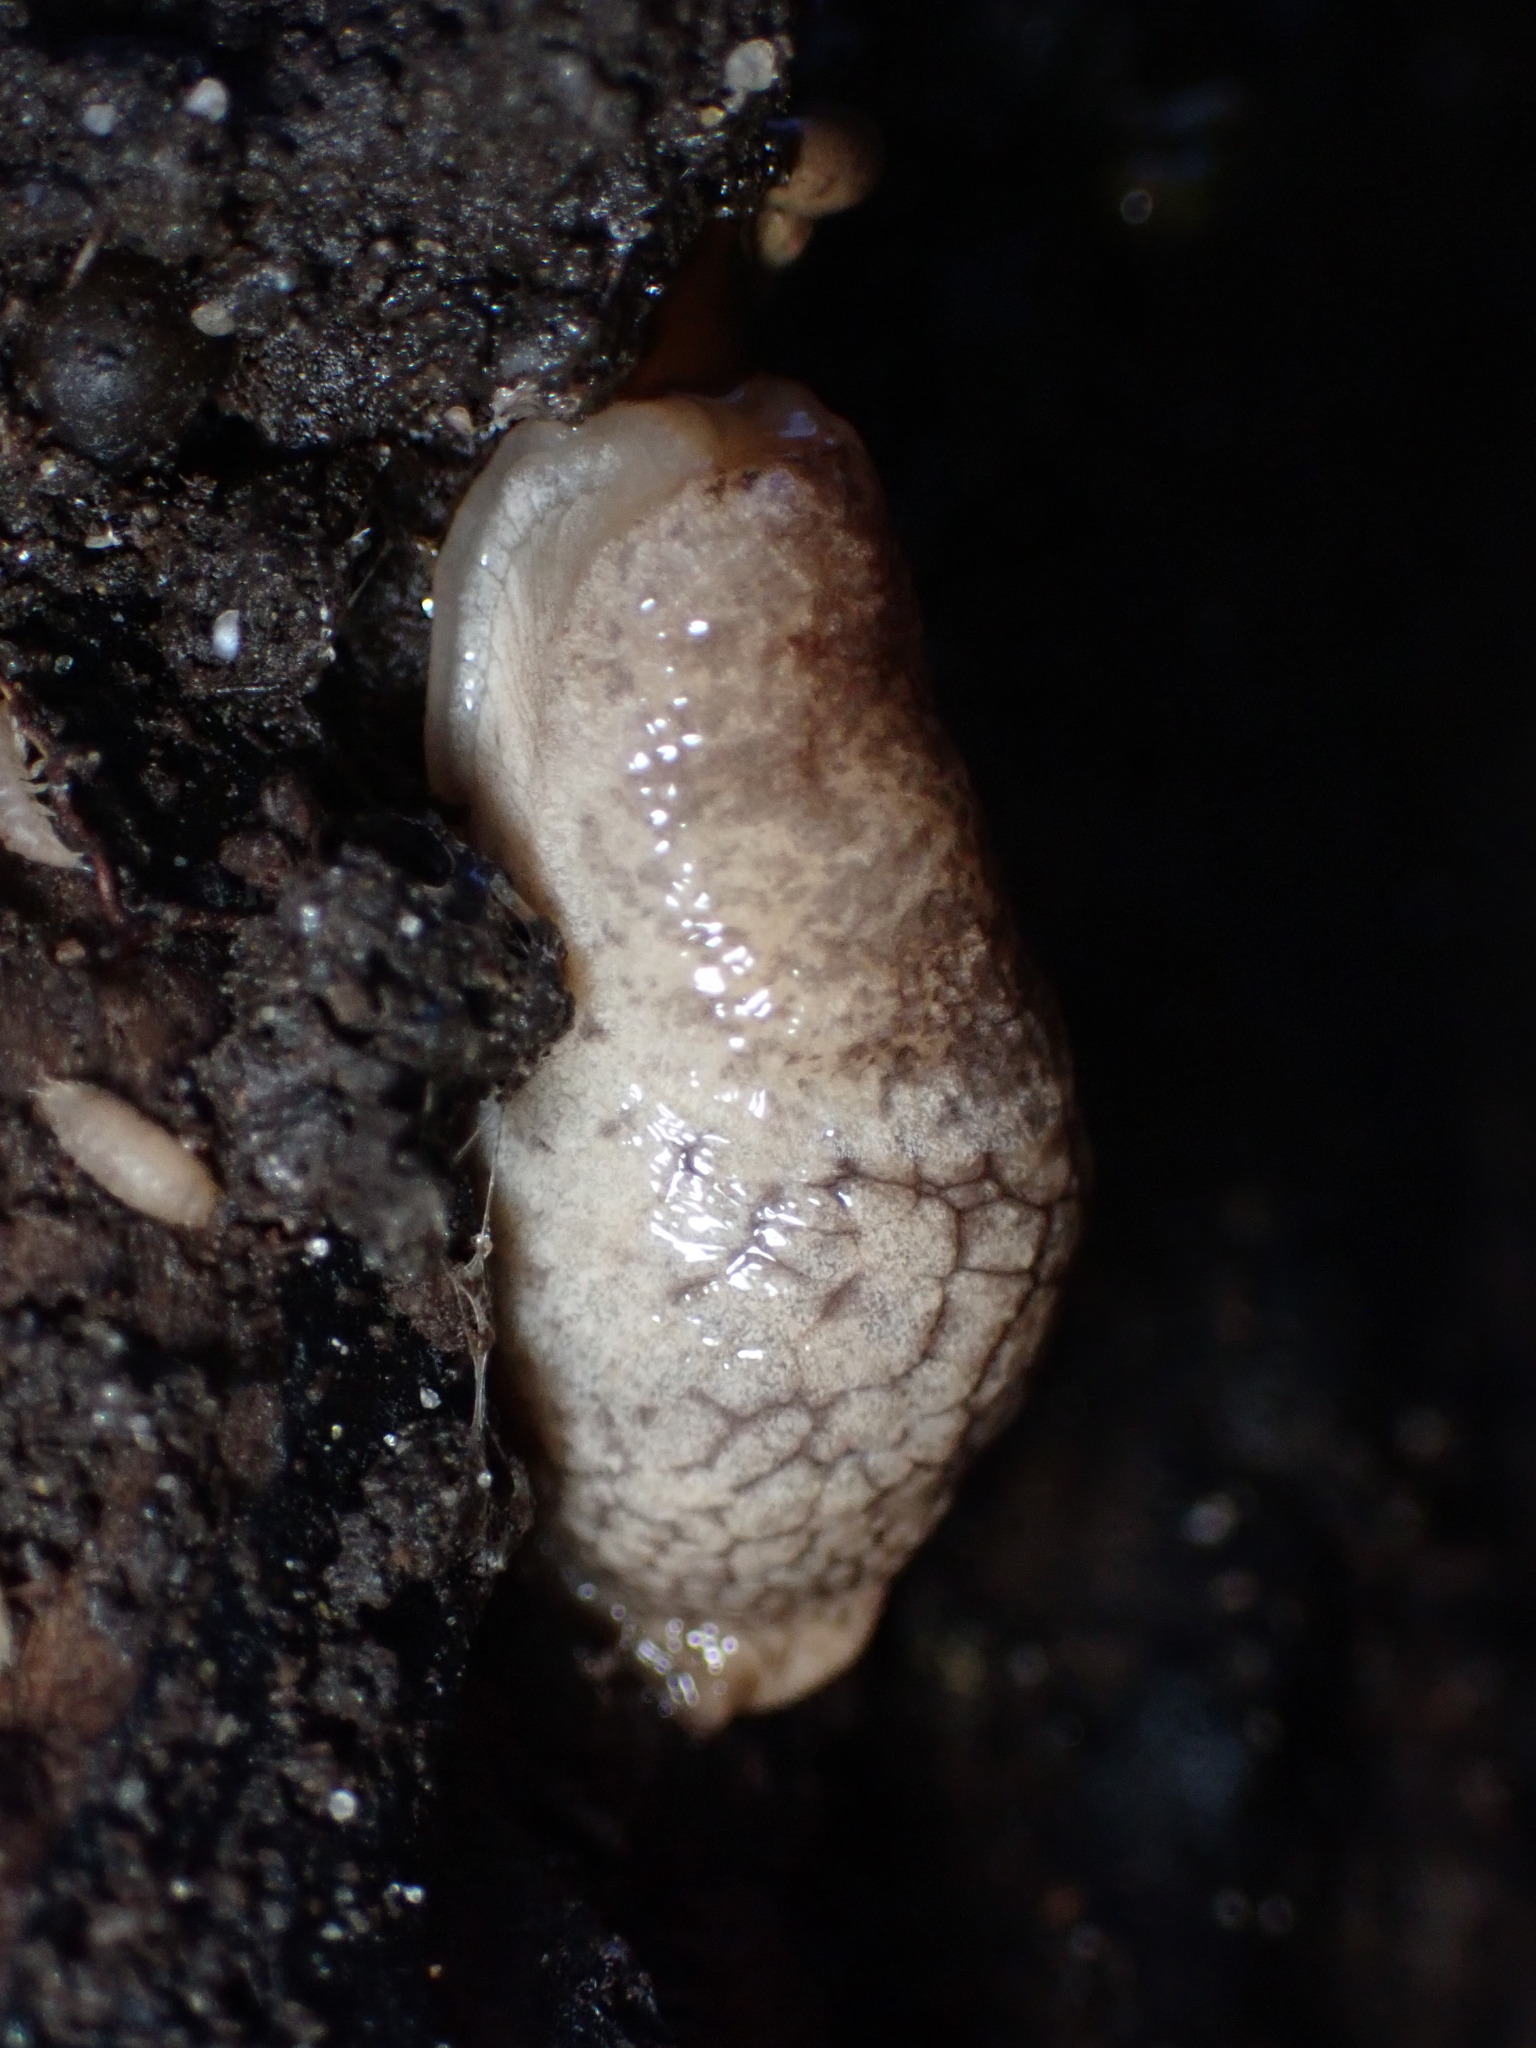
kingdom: Animalia
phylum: Mollusca
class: Gastropoda
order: Stylommatophora
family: Agriolimacidae
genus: Deroceras
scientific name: Deroceras reticulatum
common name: Gray field slug
